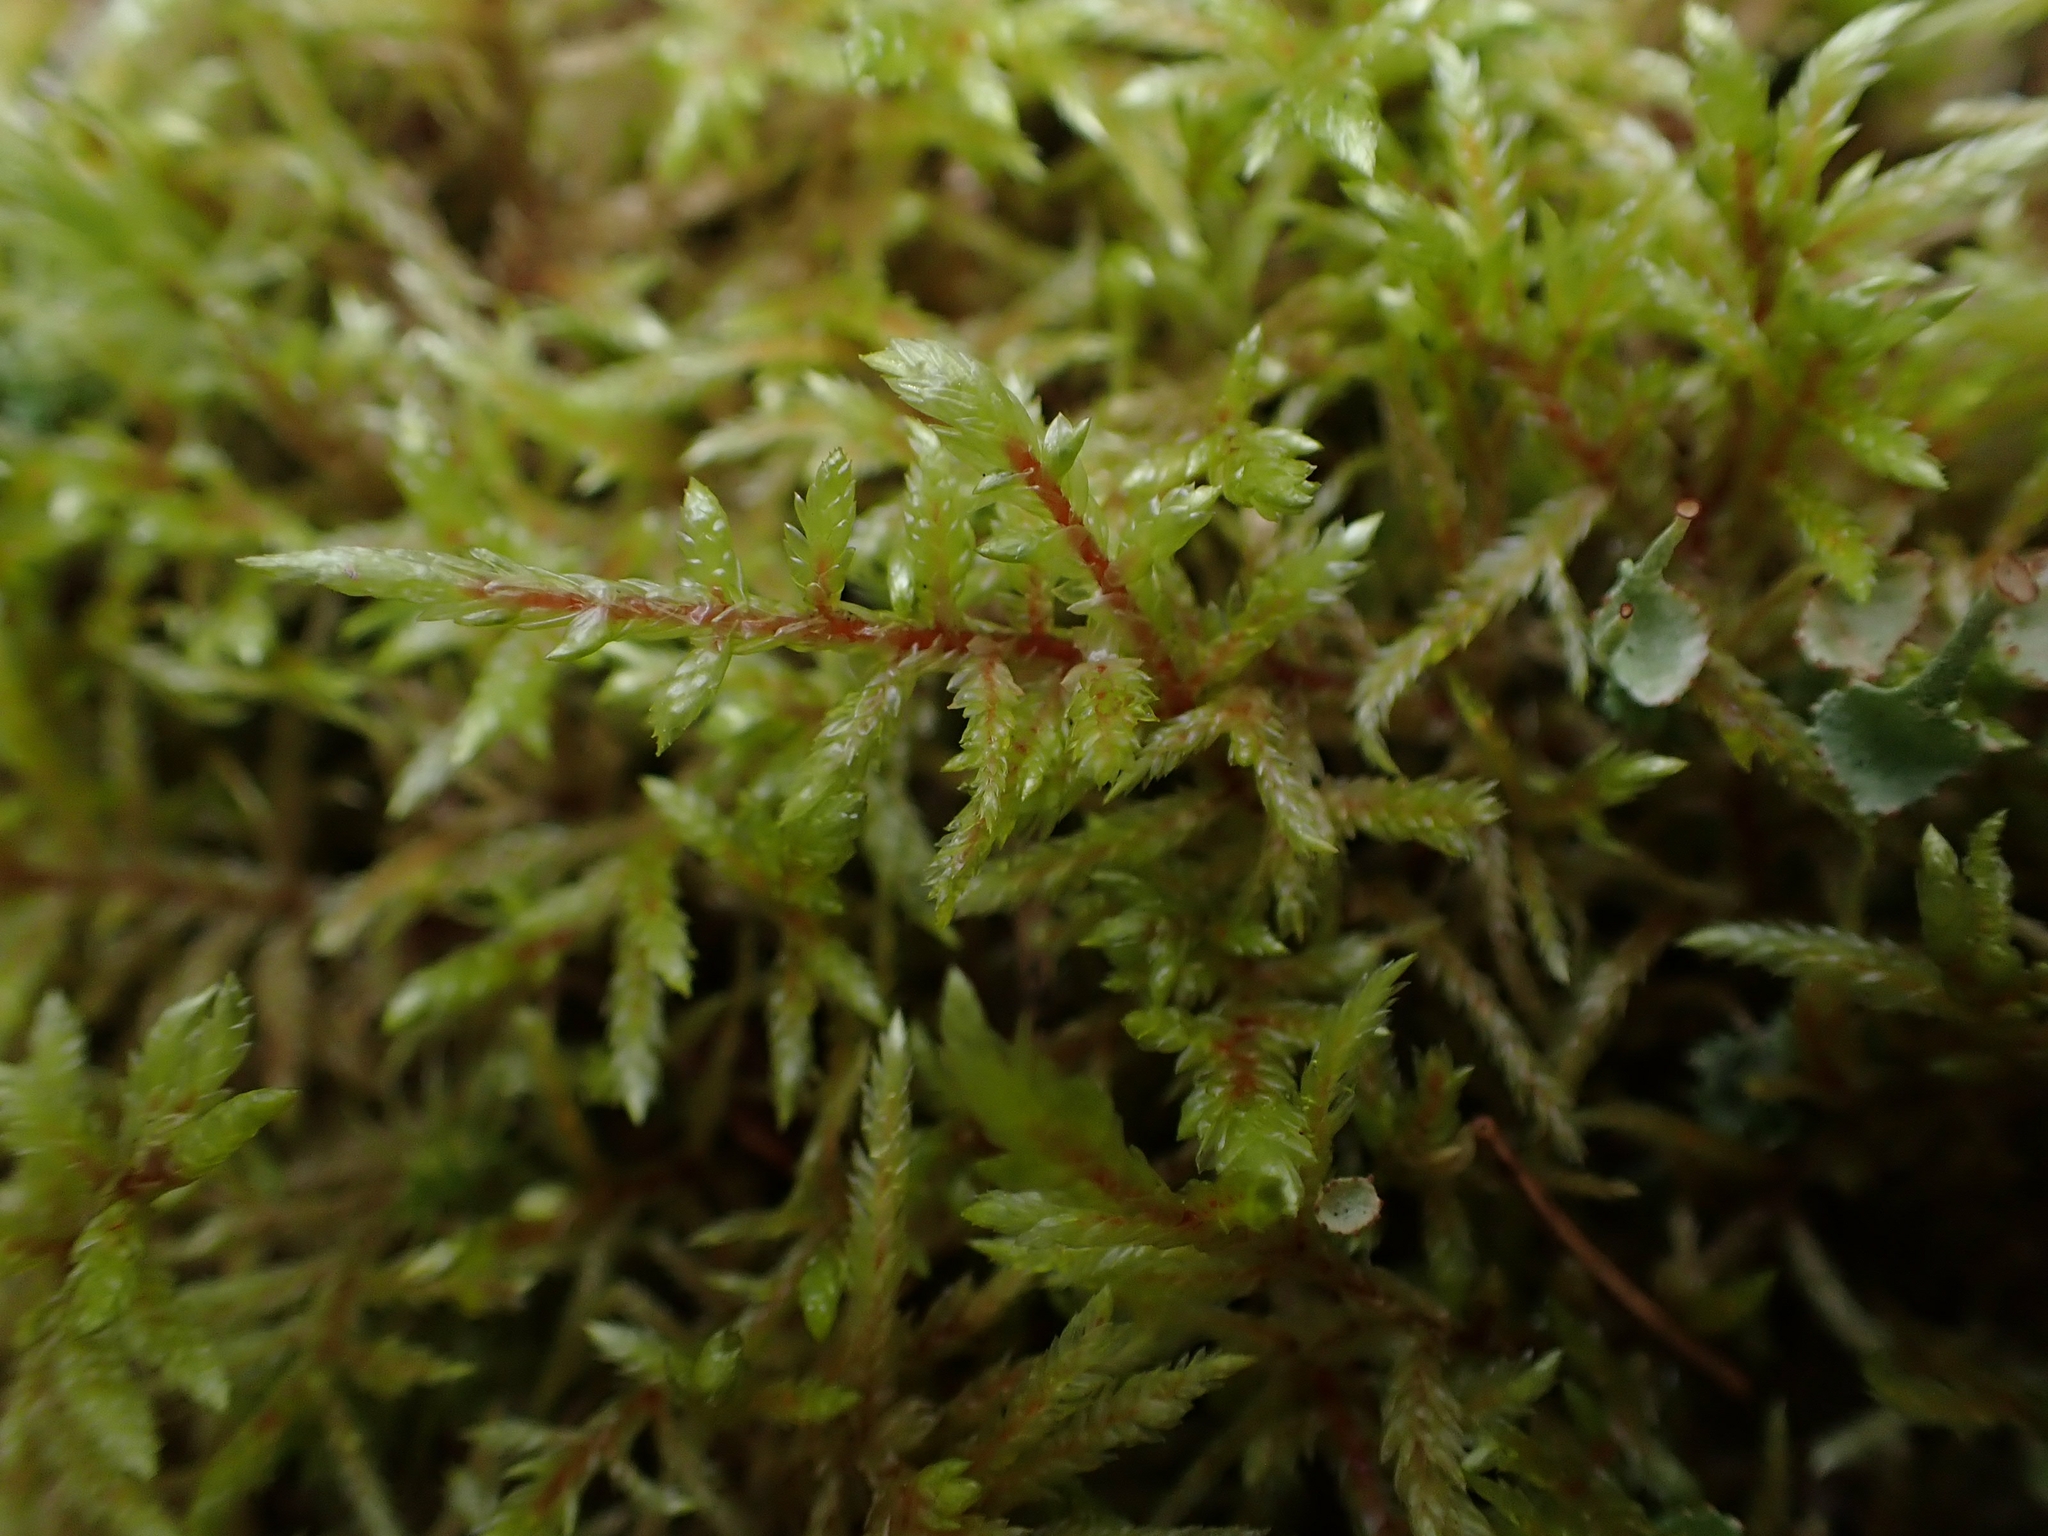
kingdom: Plantae
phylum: Bryophyta
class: Bryopsida
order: Hypnales
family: Hylocomiaceae
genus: Pleurozium
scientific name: Pleurozium schreberi
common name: Red-stemmed feather moss
